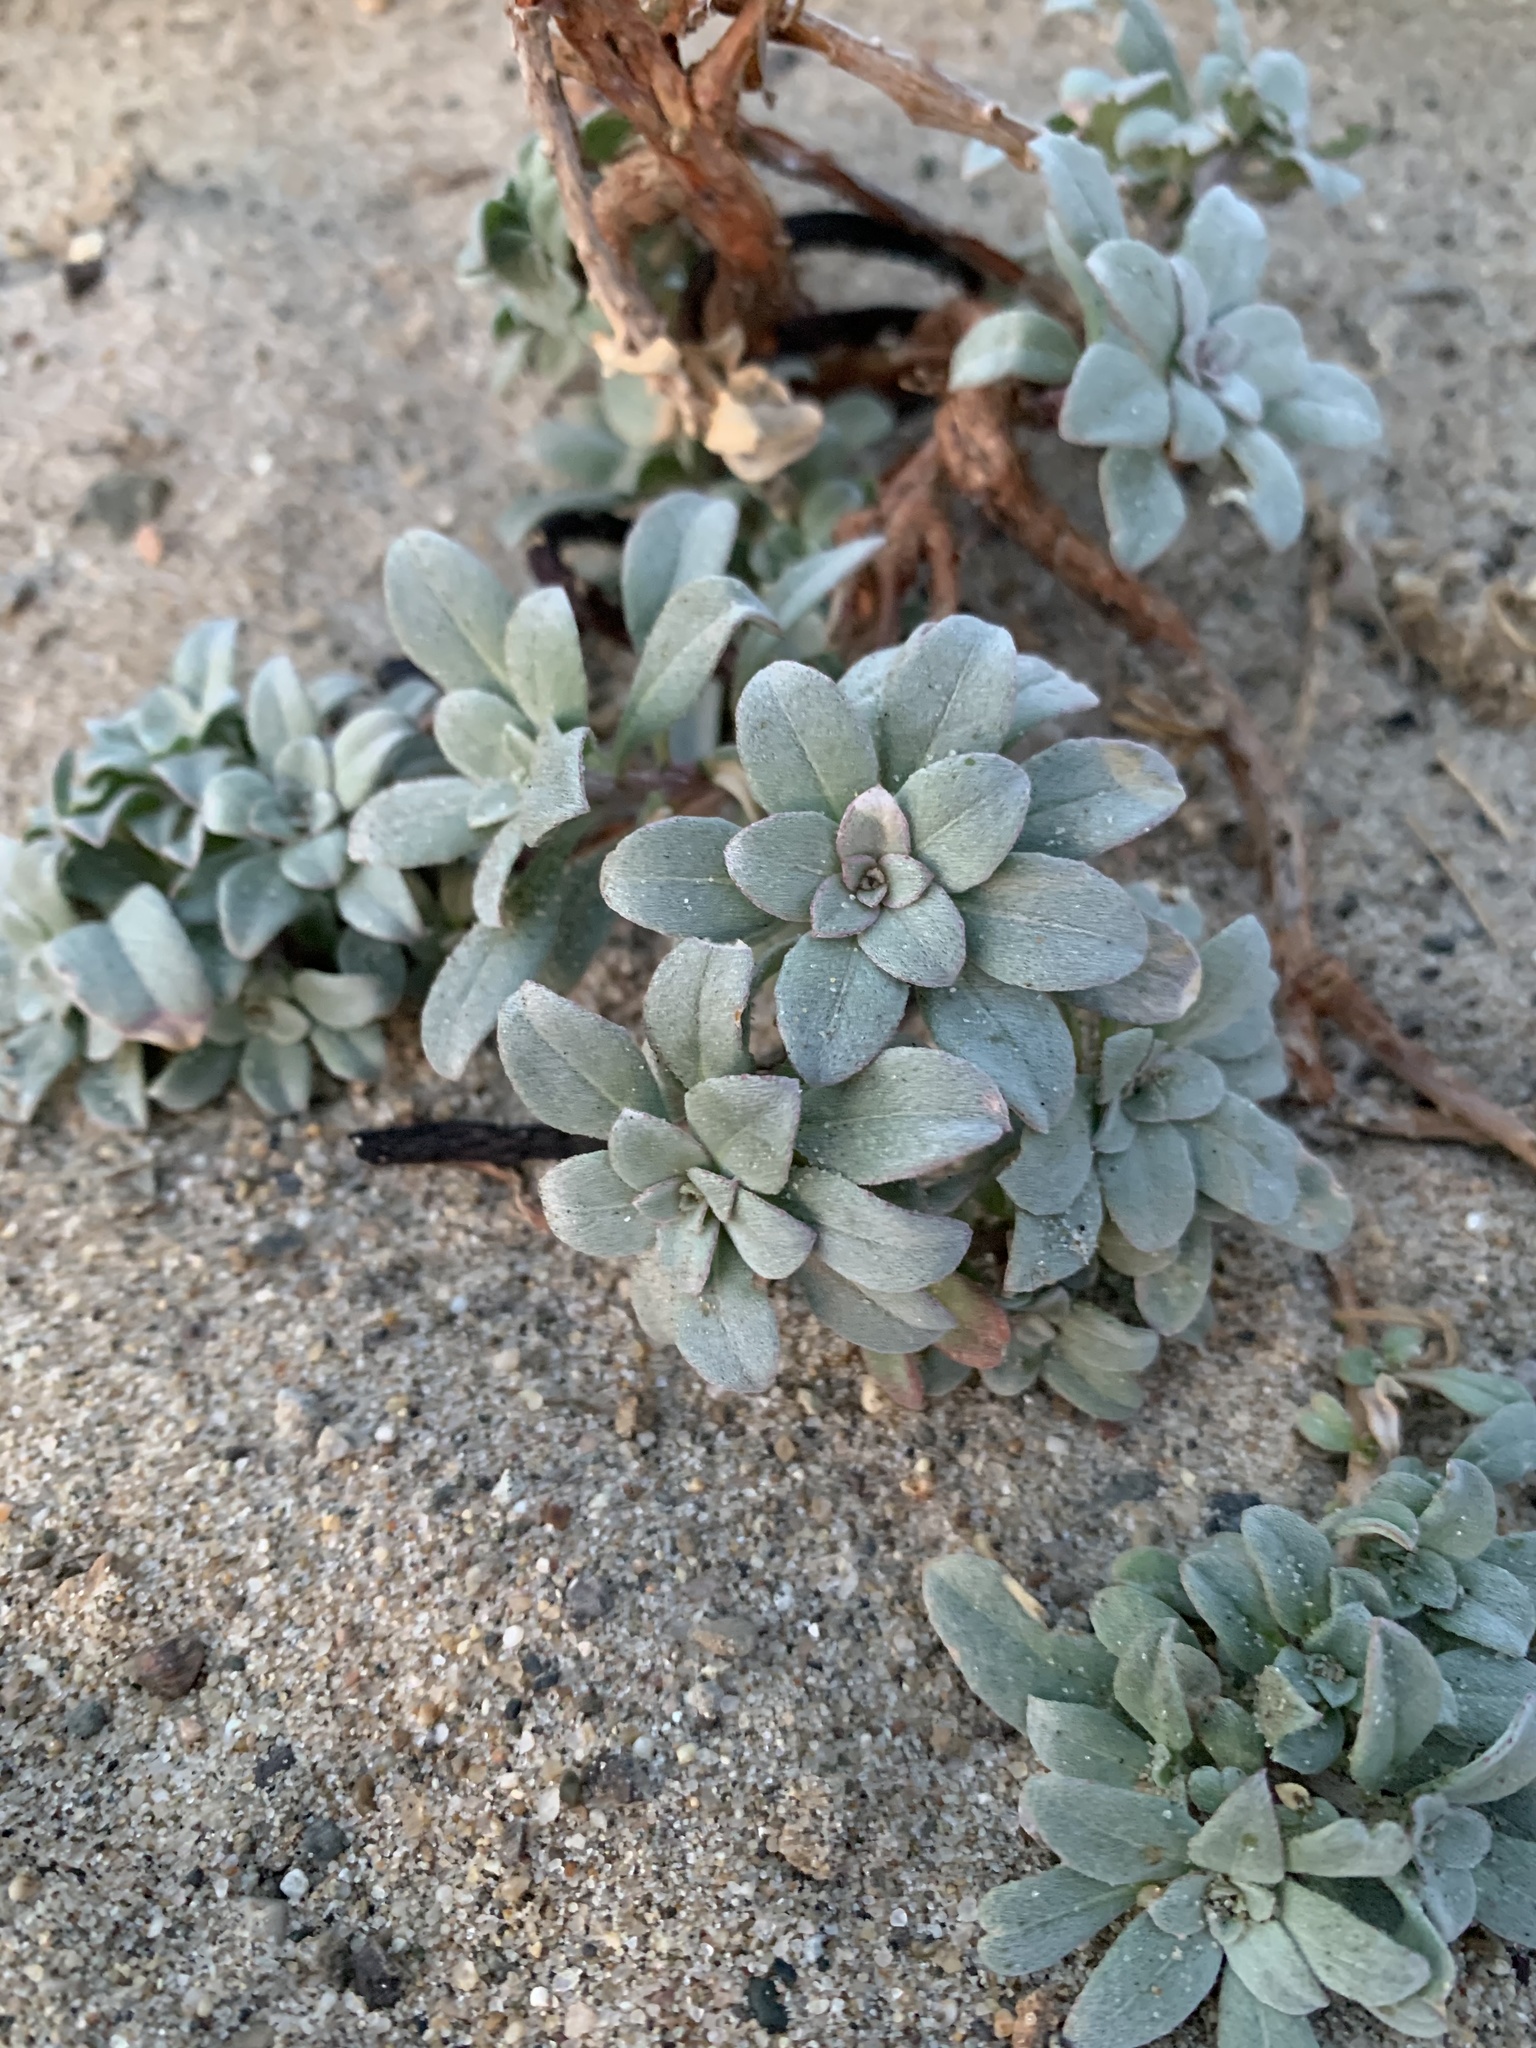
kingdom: Plantae
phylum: Tracheophyta
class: Magnoliopsida
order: Myrtales
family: Onagraceae
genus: Camissoniopsis
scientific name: Camissoniopsis cheiranthifolia
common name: Beach suncup
